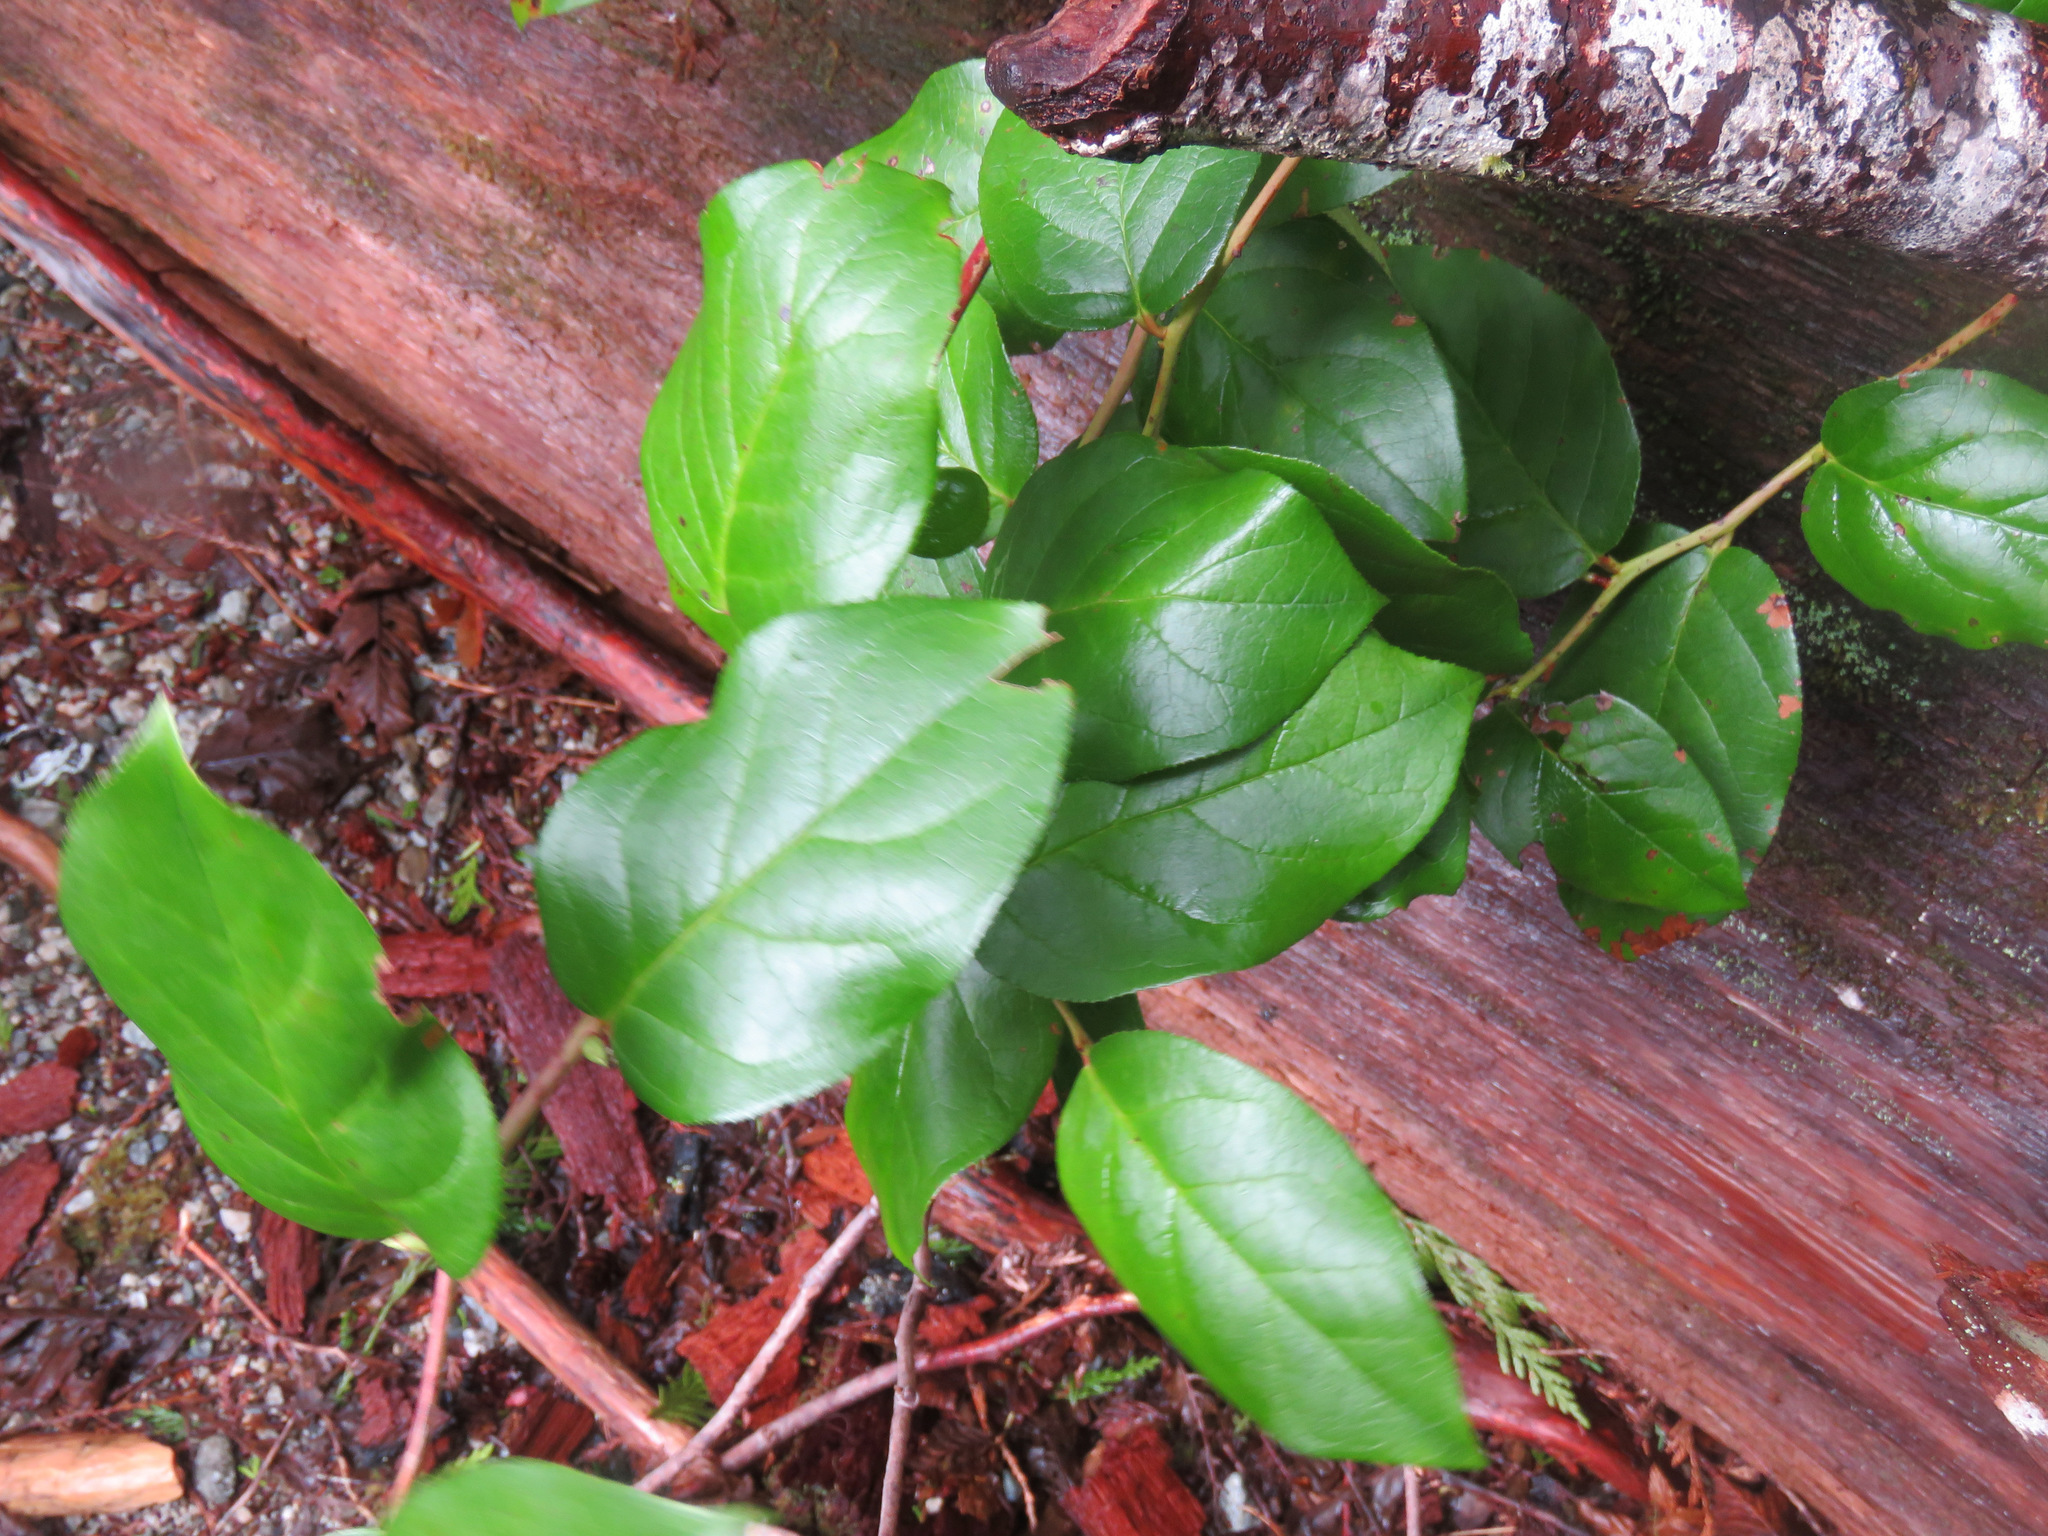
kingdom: Plantae
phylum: Tracheophyta
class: Magnoliopsida
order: Ericales
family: Ericaceae
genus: Gaultheria
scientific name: Gaultheria shallon
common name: Shallon
